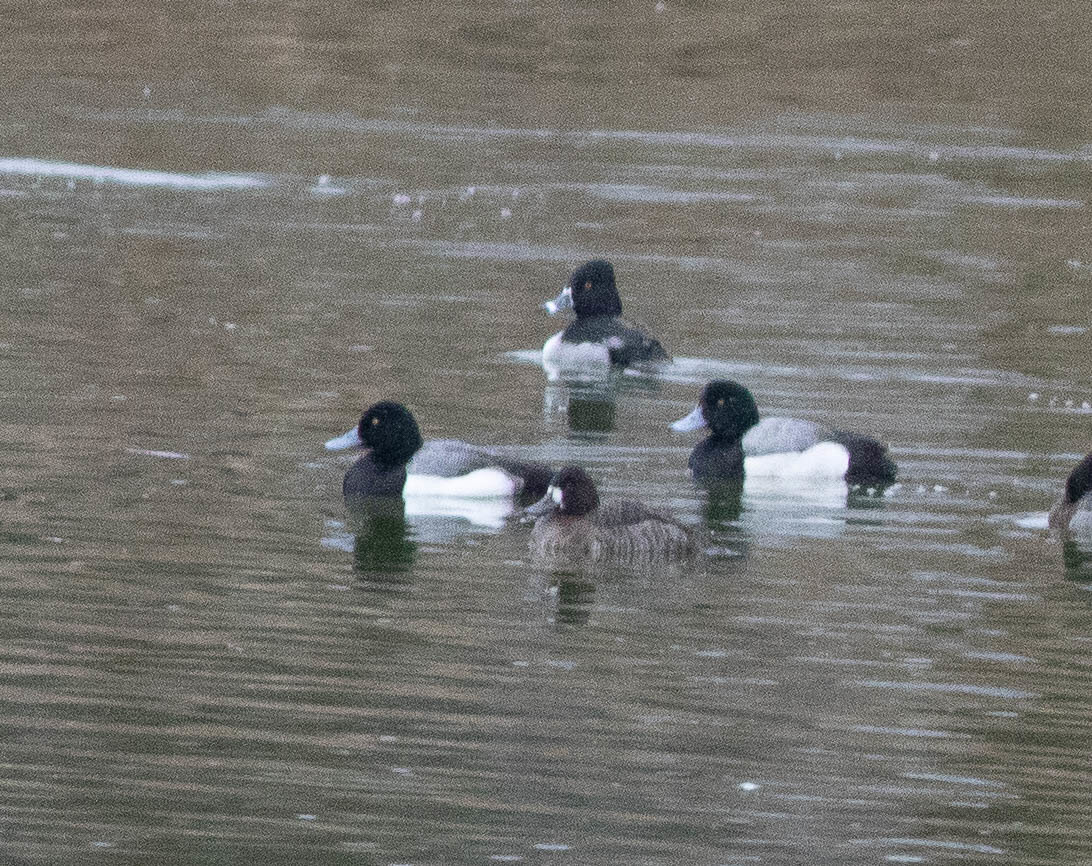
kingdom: Animalia
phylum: Chordata
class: Aves
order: Anseriformes
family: Anatidae
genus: Aythya
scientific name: Aythya marila
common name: Greater scaup
